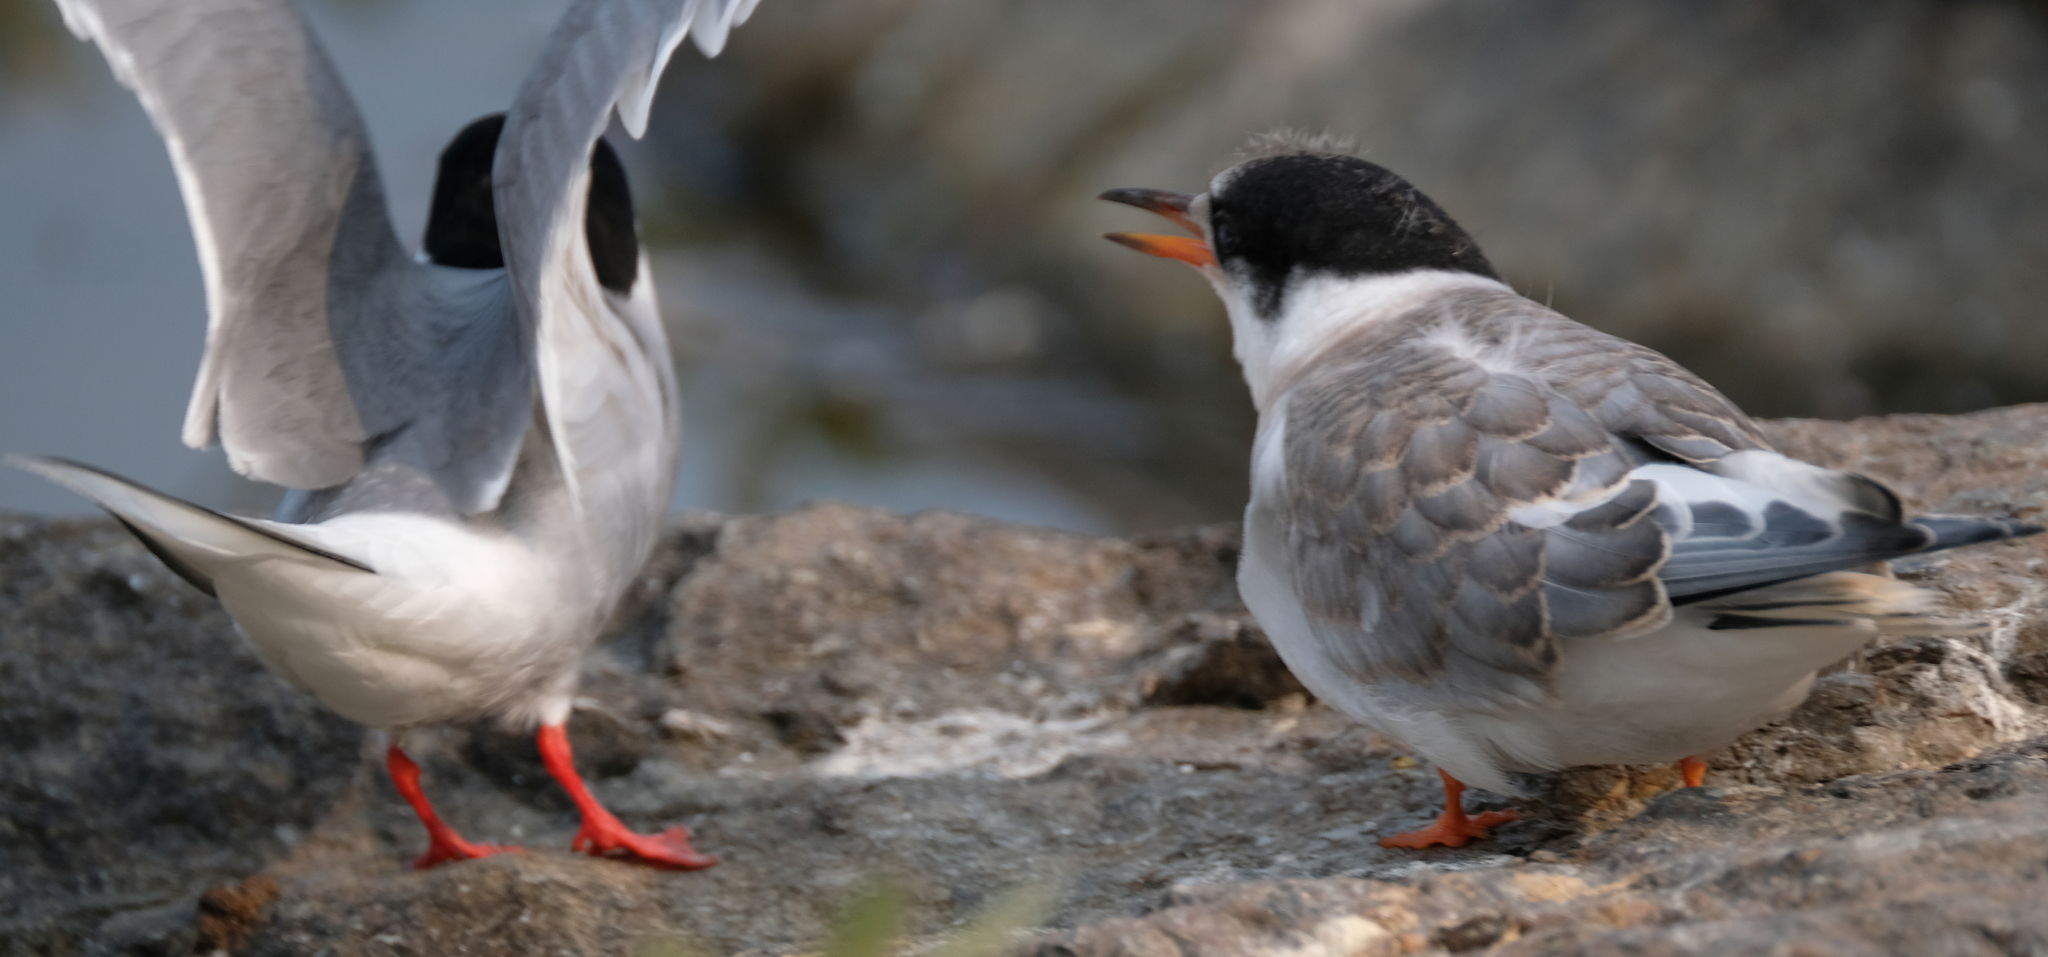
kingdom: Animalia
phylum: Chordata
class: Aves
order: Charadriiformes
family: Laridae
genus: Sterna
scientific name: Sterna paradisaea
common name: Arctic tern
